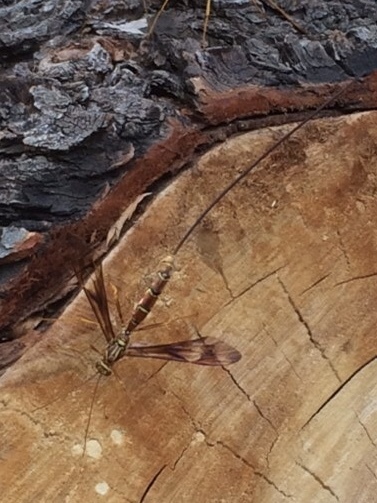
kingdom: Animalia
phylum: Arthropoda
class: Insecta
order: Hymenoptera
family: Ichneumonidae
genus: Megarhyssa
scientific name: Megarhyssa macrura
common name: Long-tailed giant ichneumonid wasp
